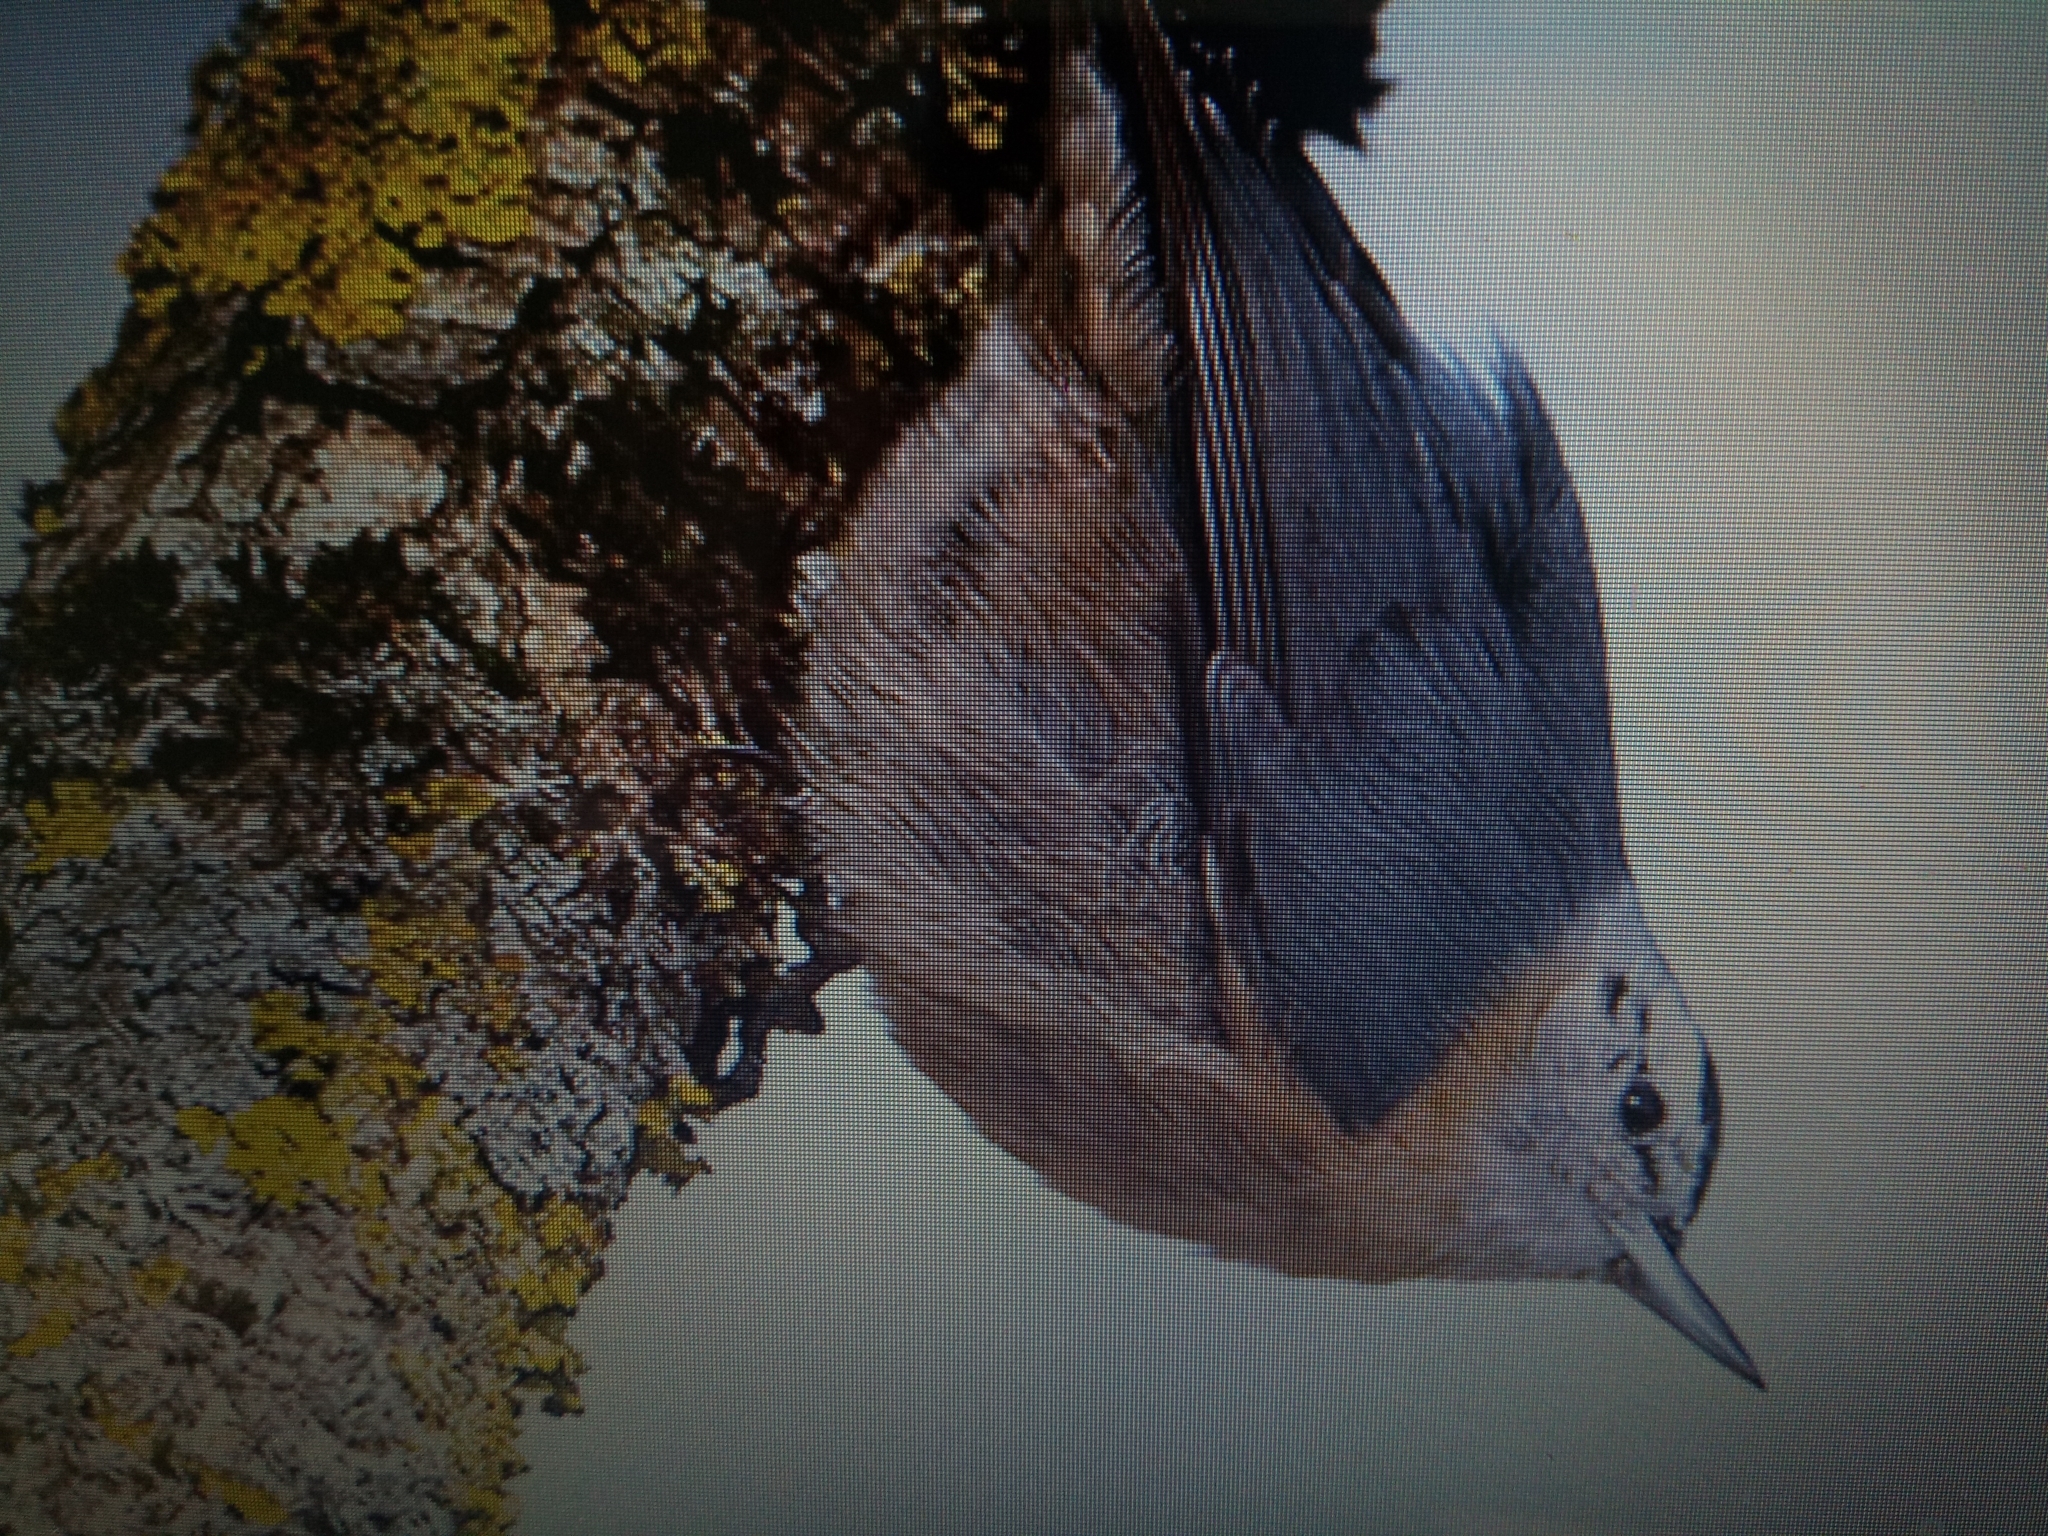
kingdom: Animalia
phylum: Chordata
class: Aves
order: Passeriformes
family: Sittidae
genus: Sitta
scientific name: Sitta ledanti
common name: Algerian nuthatch
